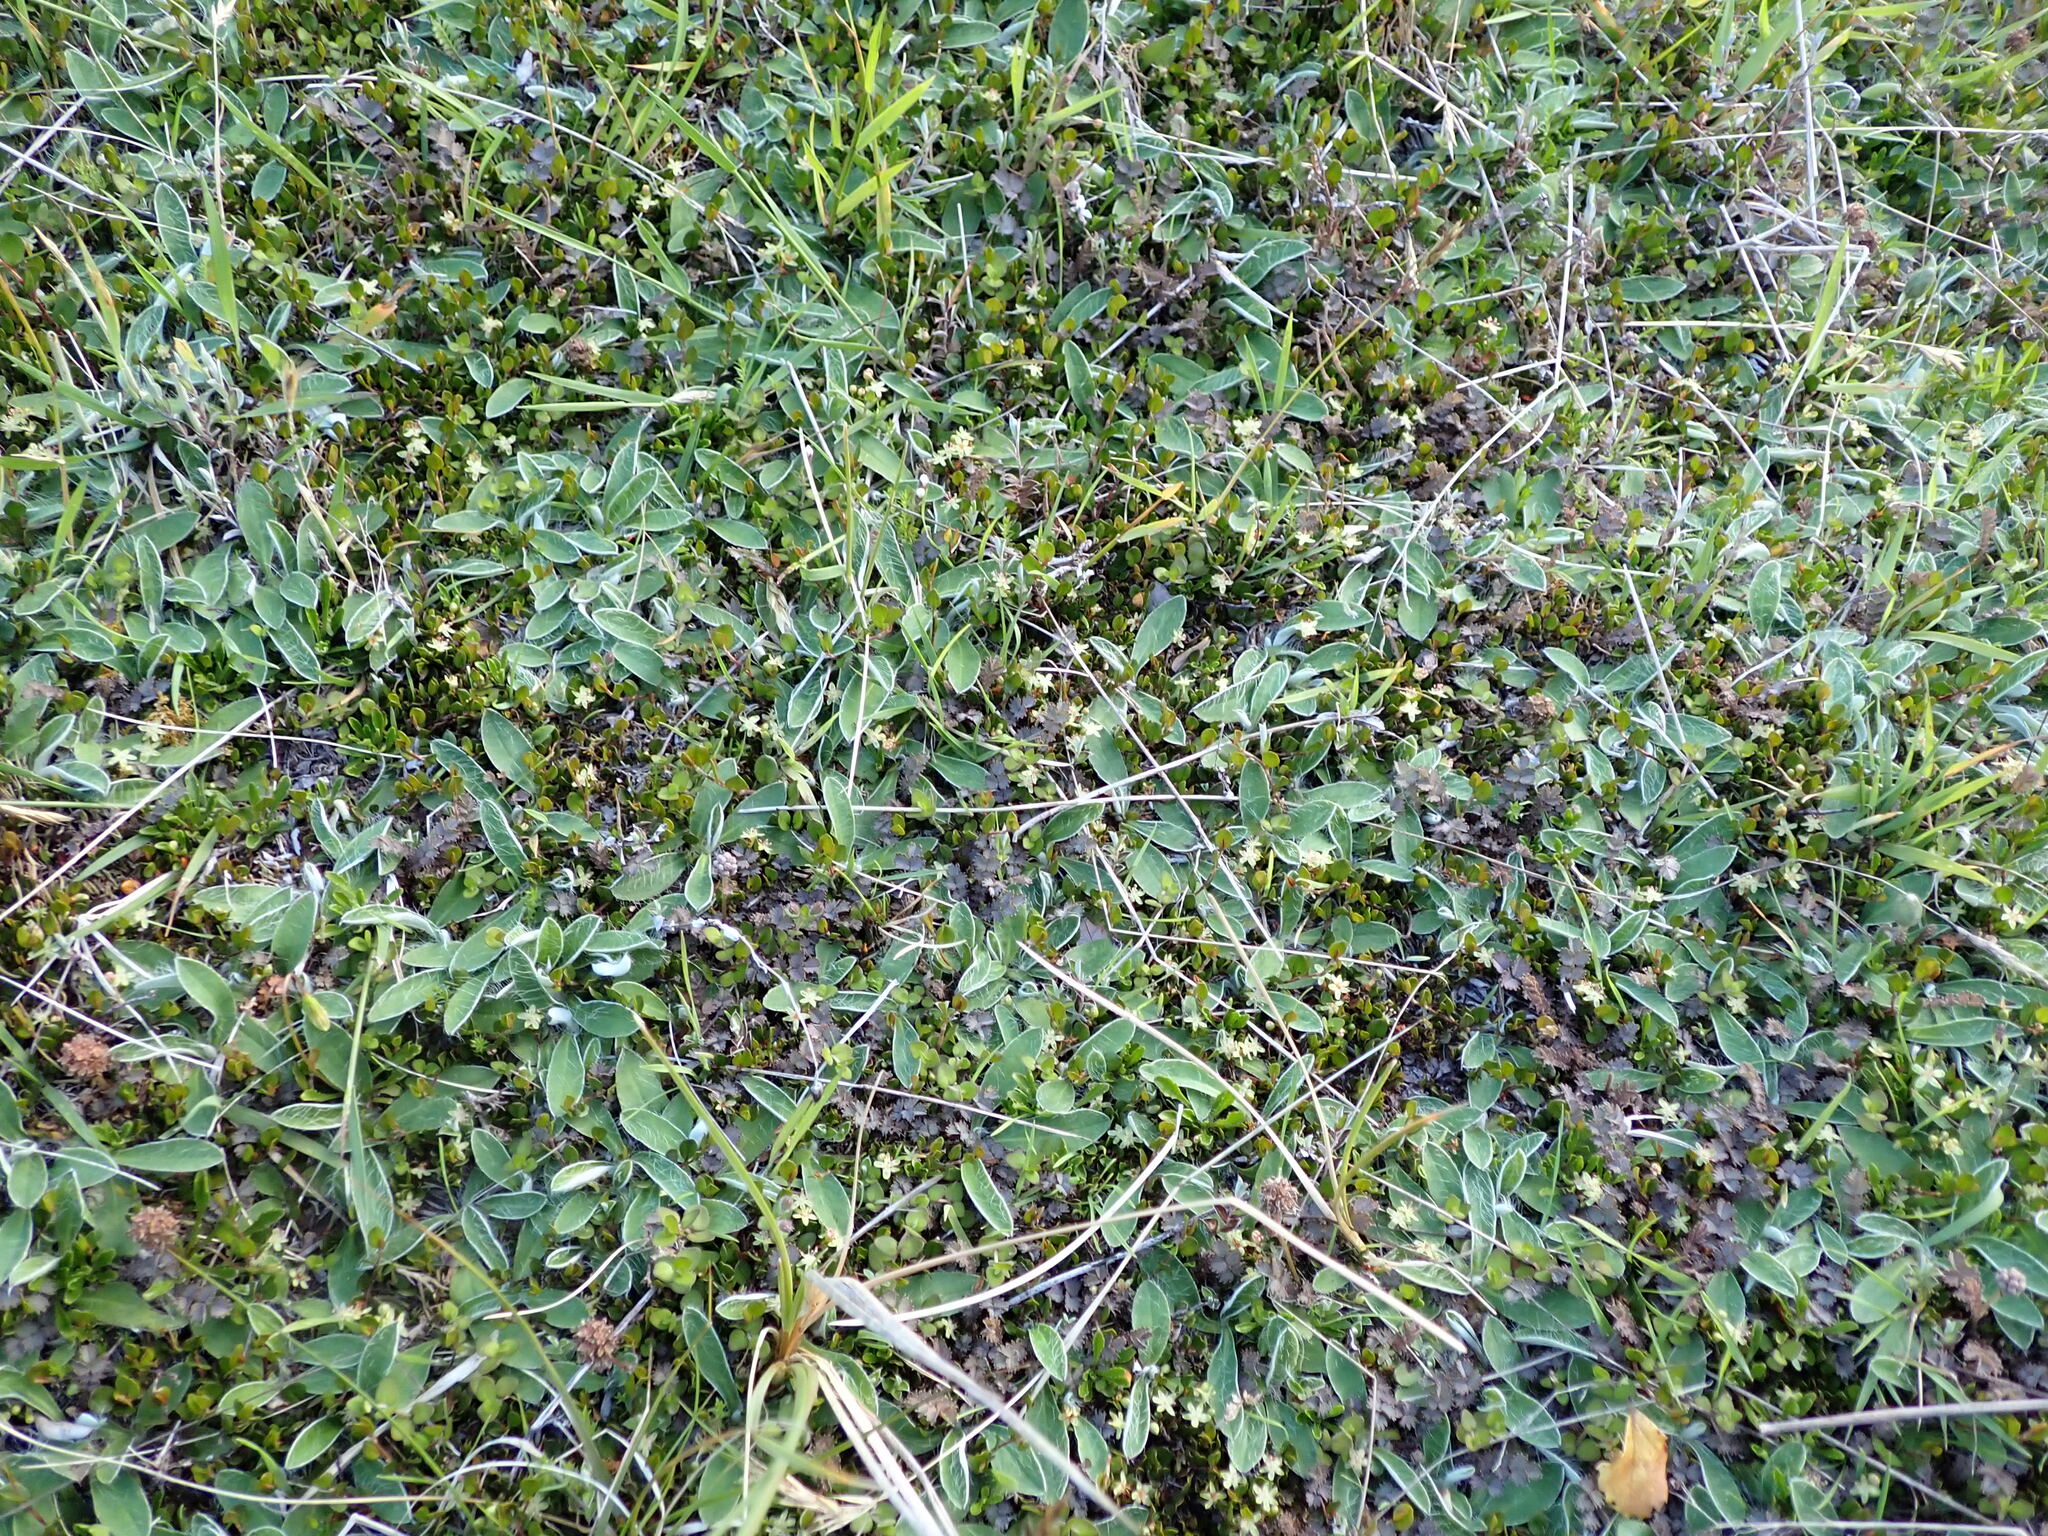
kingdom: Plantae
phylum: Tracheophyta
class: Magnoliopsida
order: Asterales
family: Asteraceae
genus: Pilosella
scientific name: Pilosella officinarum
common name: Mouse-ear hawkweed
